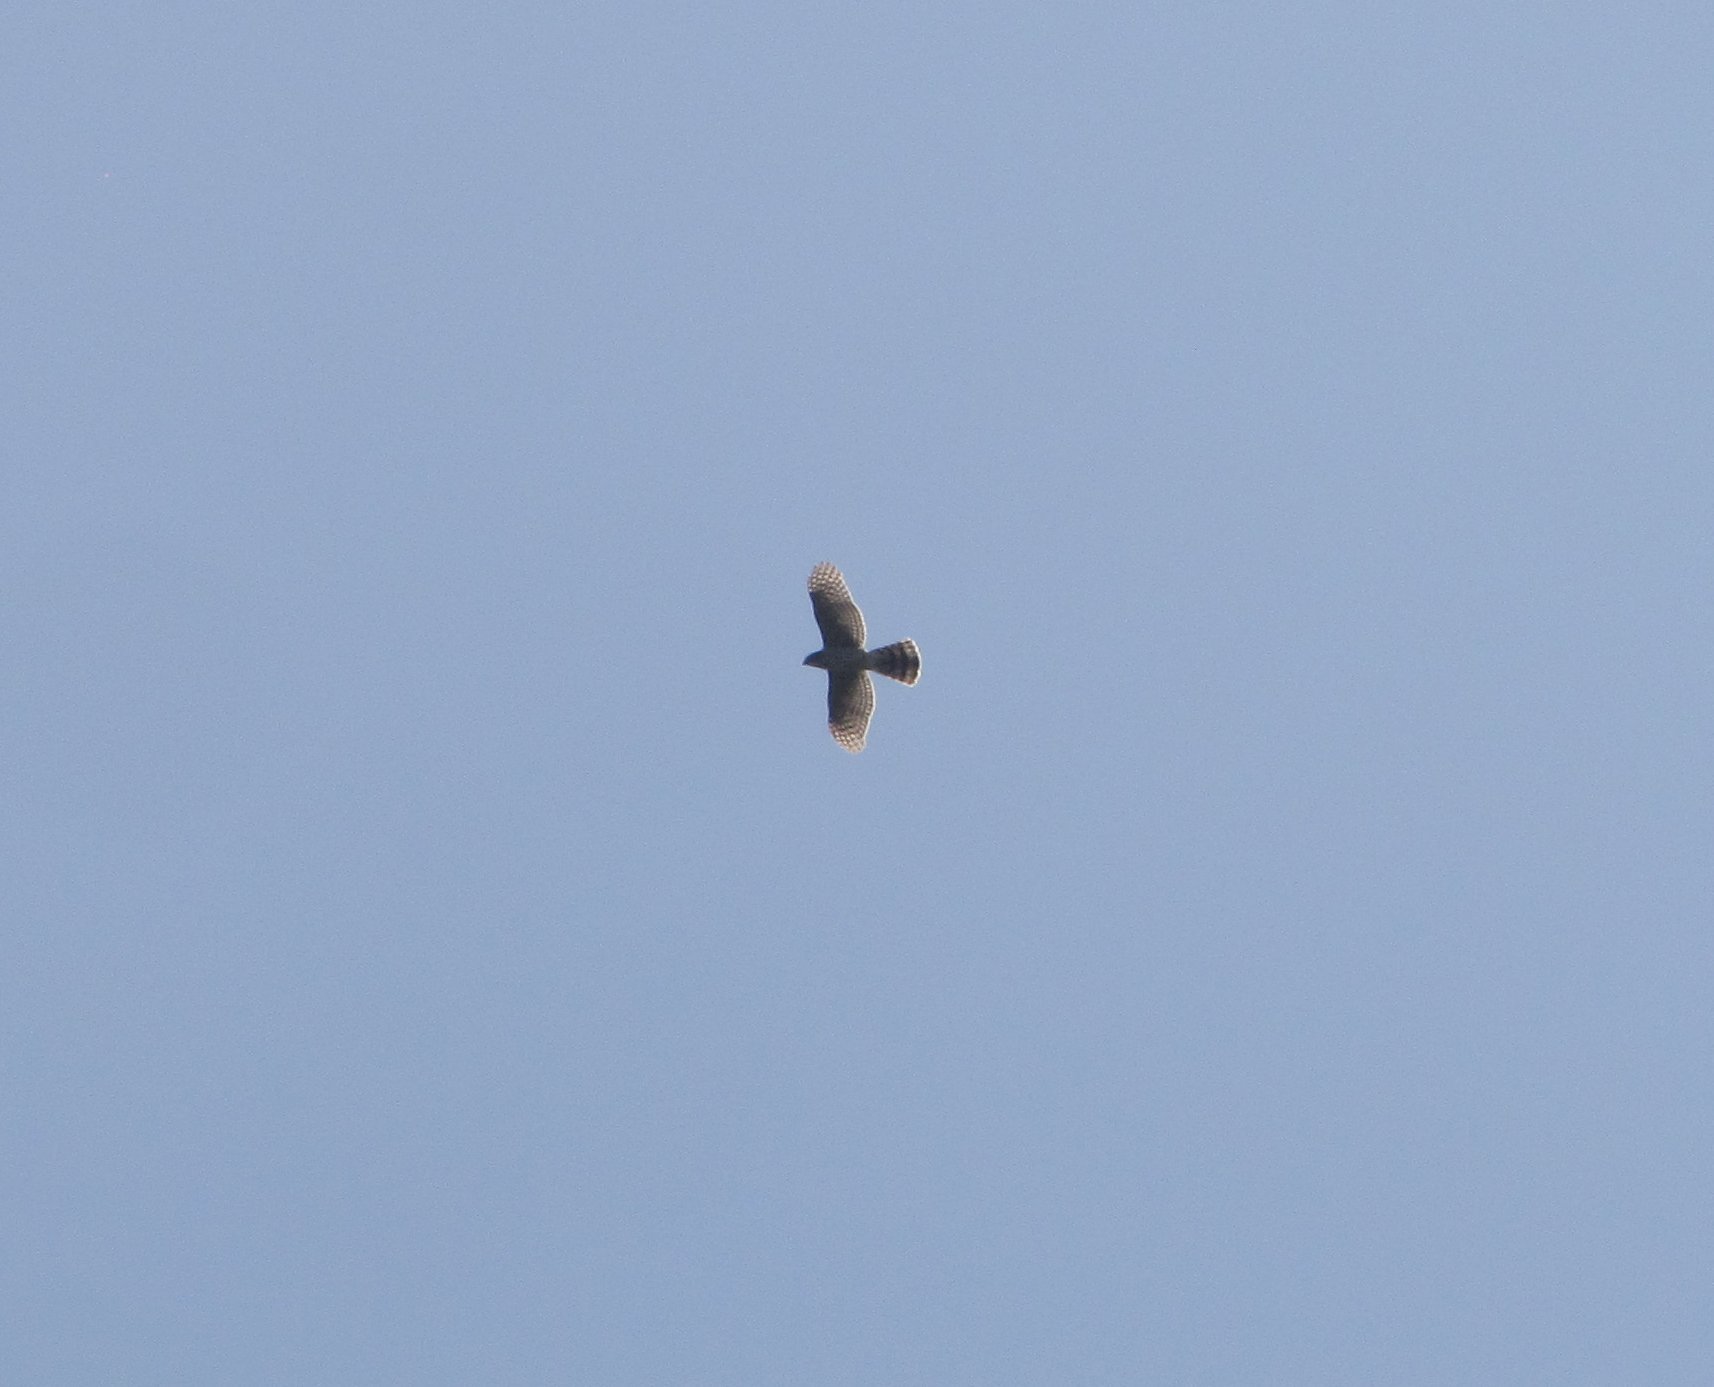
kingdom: Animalia
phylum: Chordata
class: Aves
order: Accipitriformes
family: Accipitridae
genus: Accipiter
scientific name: Accipiter cooperii
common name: Cooper's hawk
